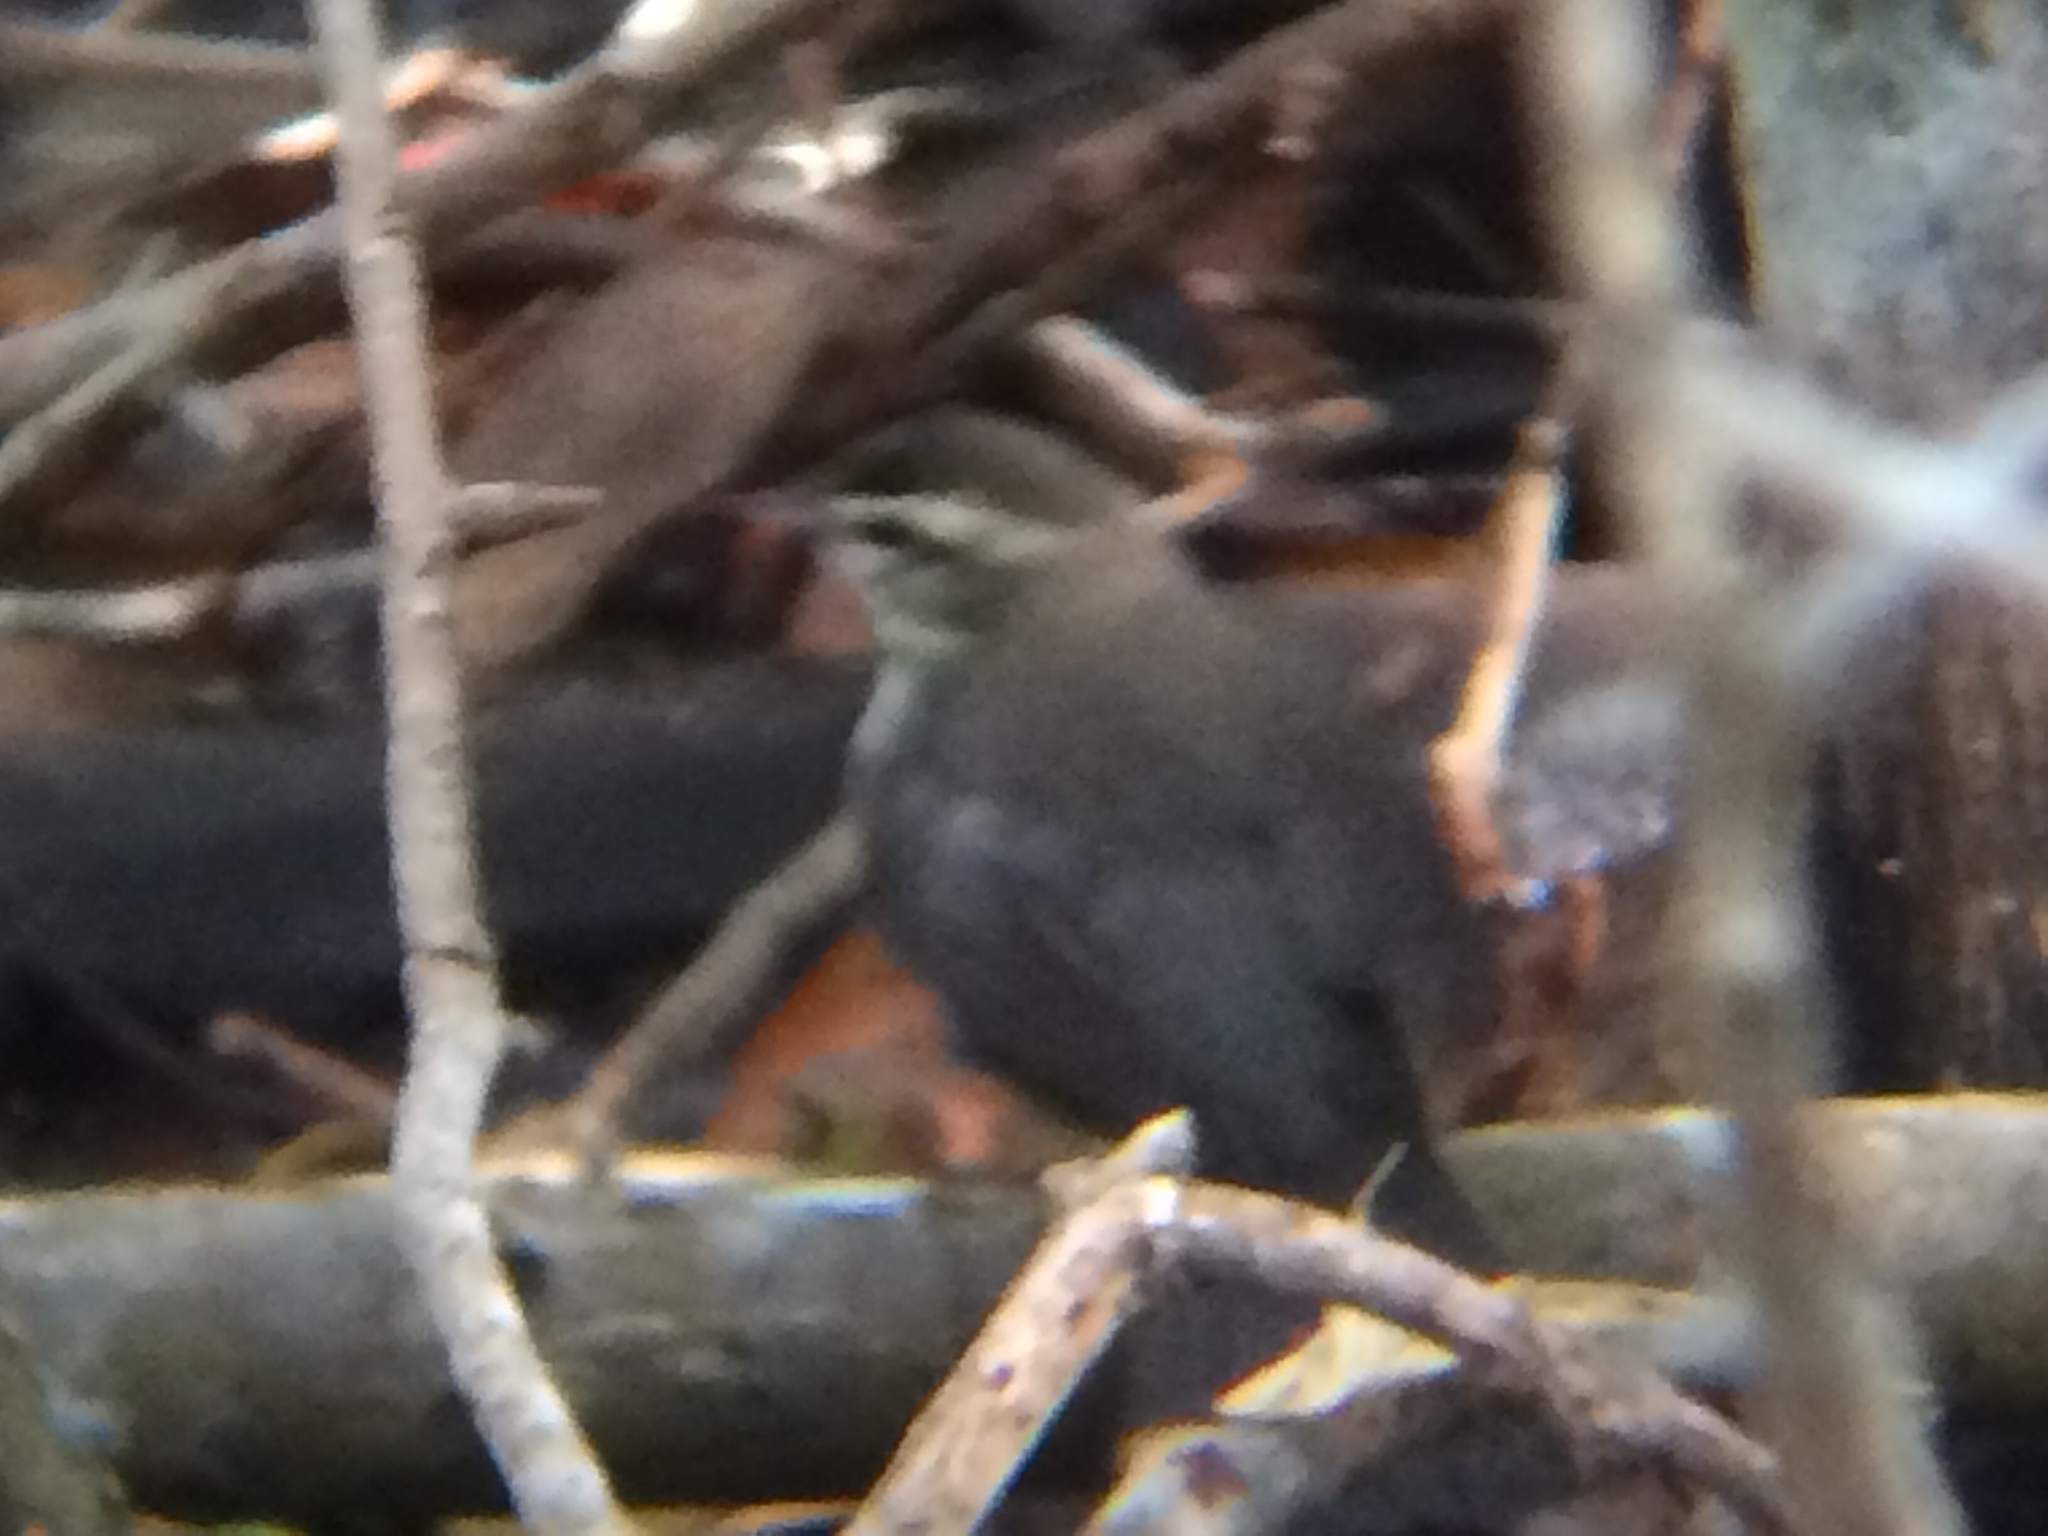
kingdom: Animalia
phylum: Chordata
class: Aves
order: Passeriformes
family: Parulidae
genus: Parkesia
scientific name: Parkesia noveboracensis
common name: Northern waterthrush
